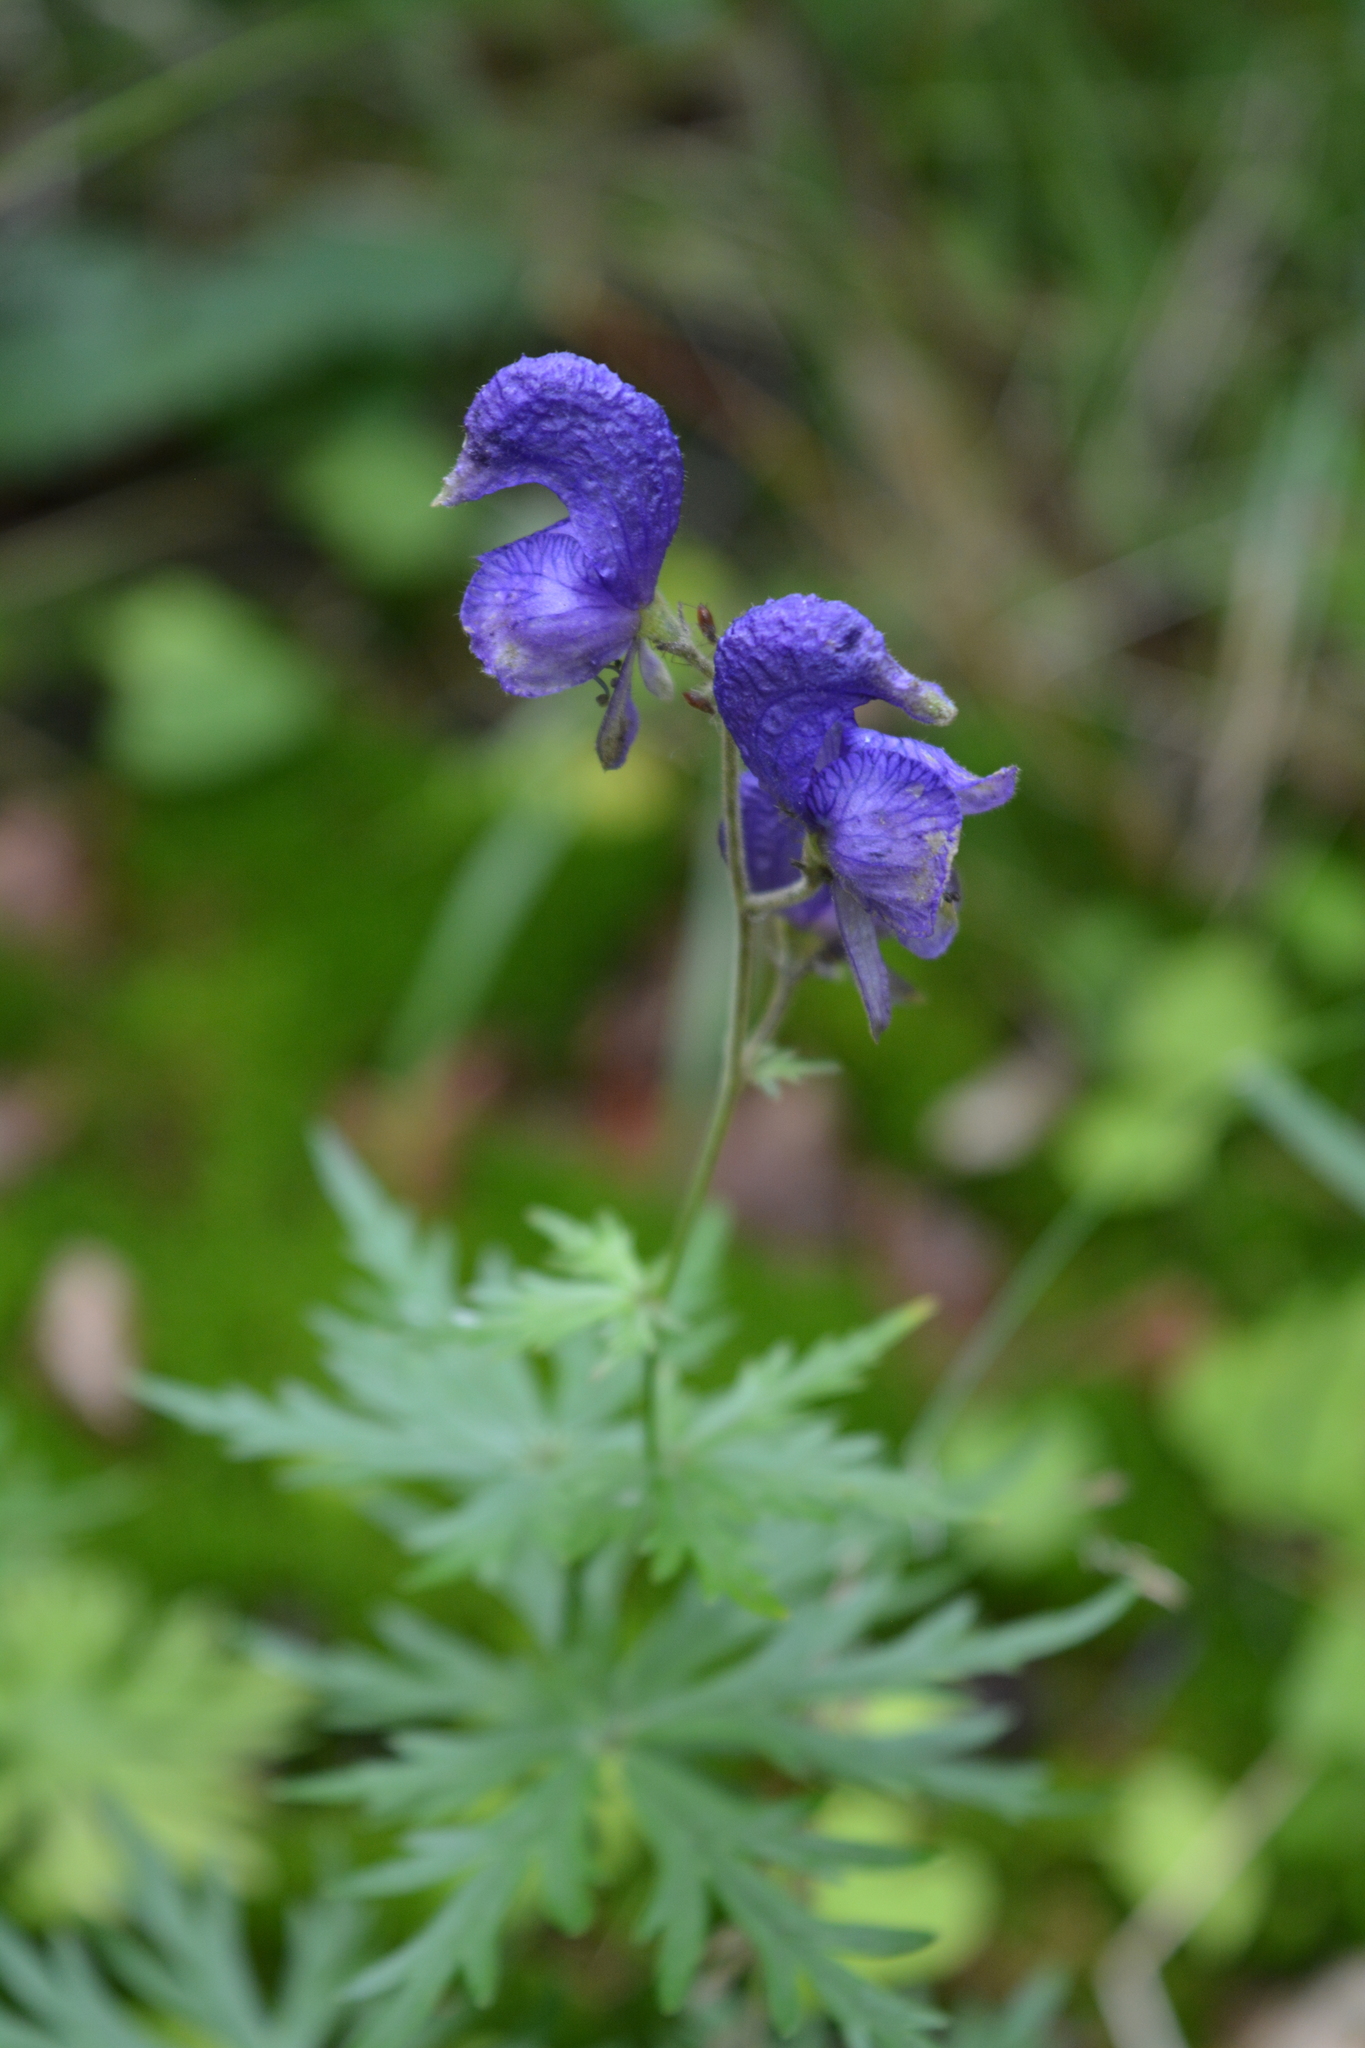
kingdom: Plantae
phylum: Tracheophyta
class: Magnoliopsida
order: Ranunculales
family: Ranunculaceae
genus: Aconitum
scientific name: Aconitum baicalense
